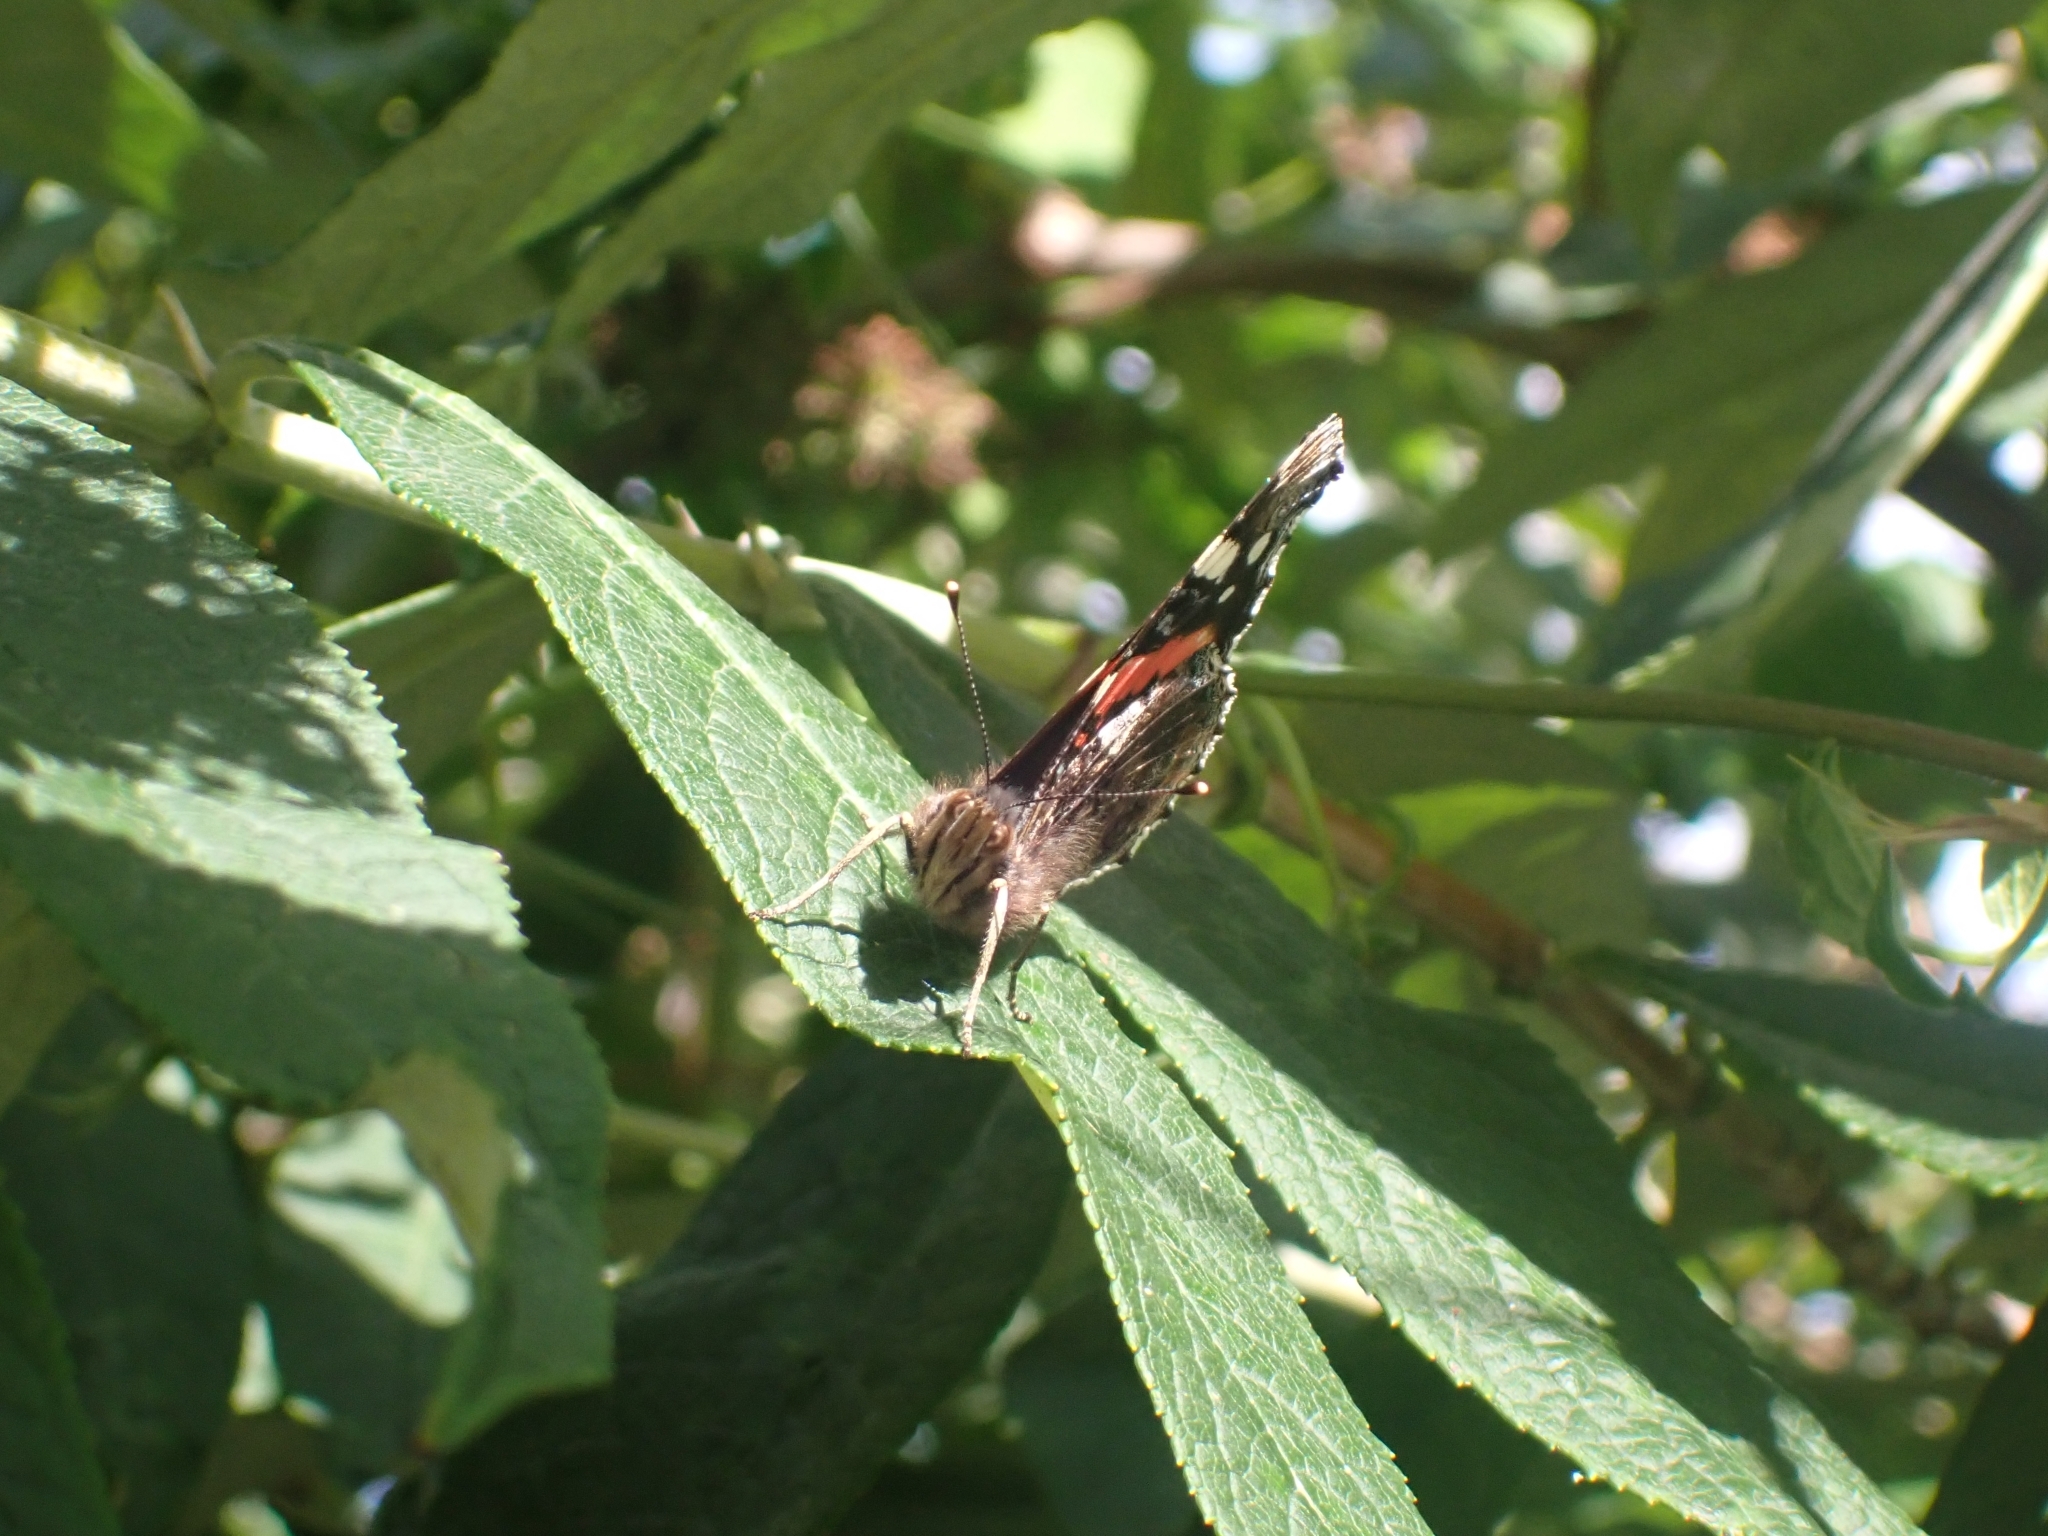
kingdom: Animalia
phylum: Arthropoda
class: Insecta
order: Lepidoptera
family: Nymphalidae
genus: Vanessa
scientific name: Vanessa atalanta
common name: Red admiral
